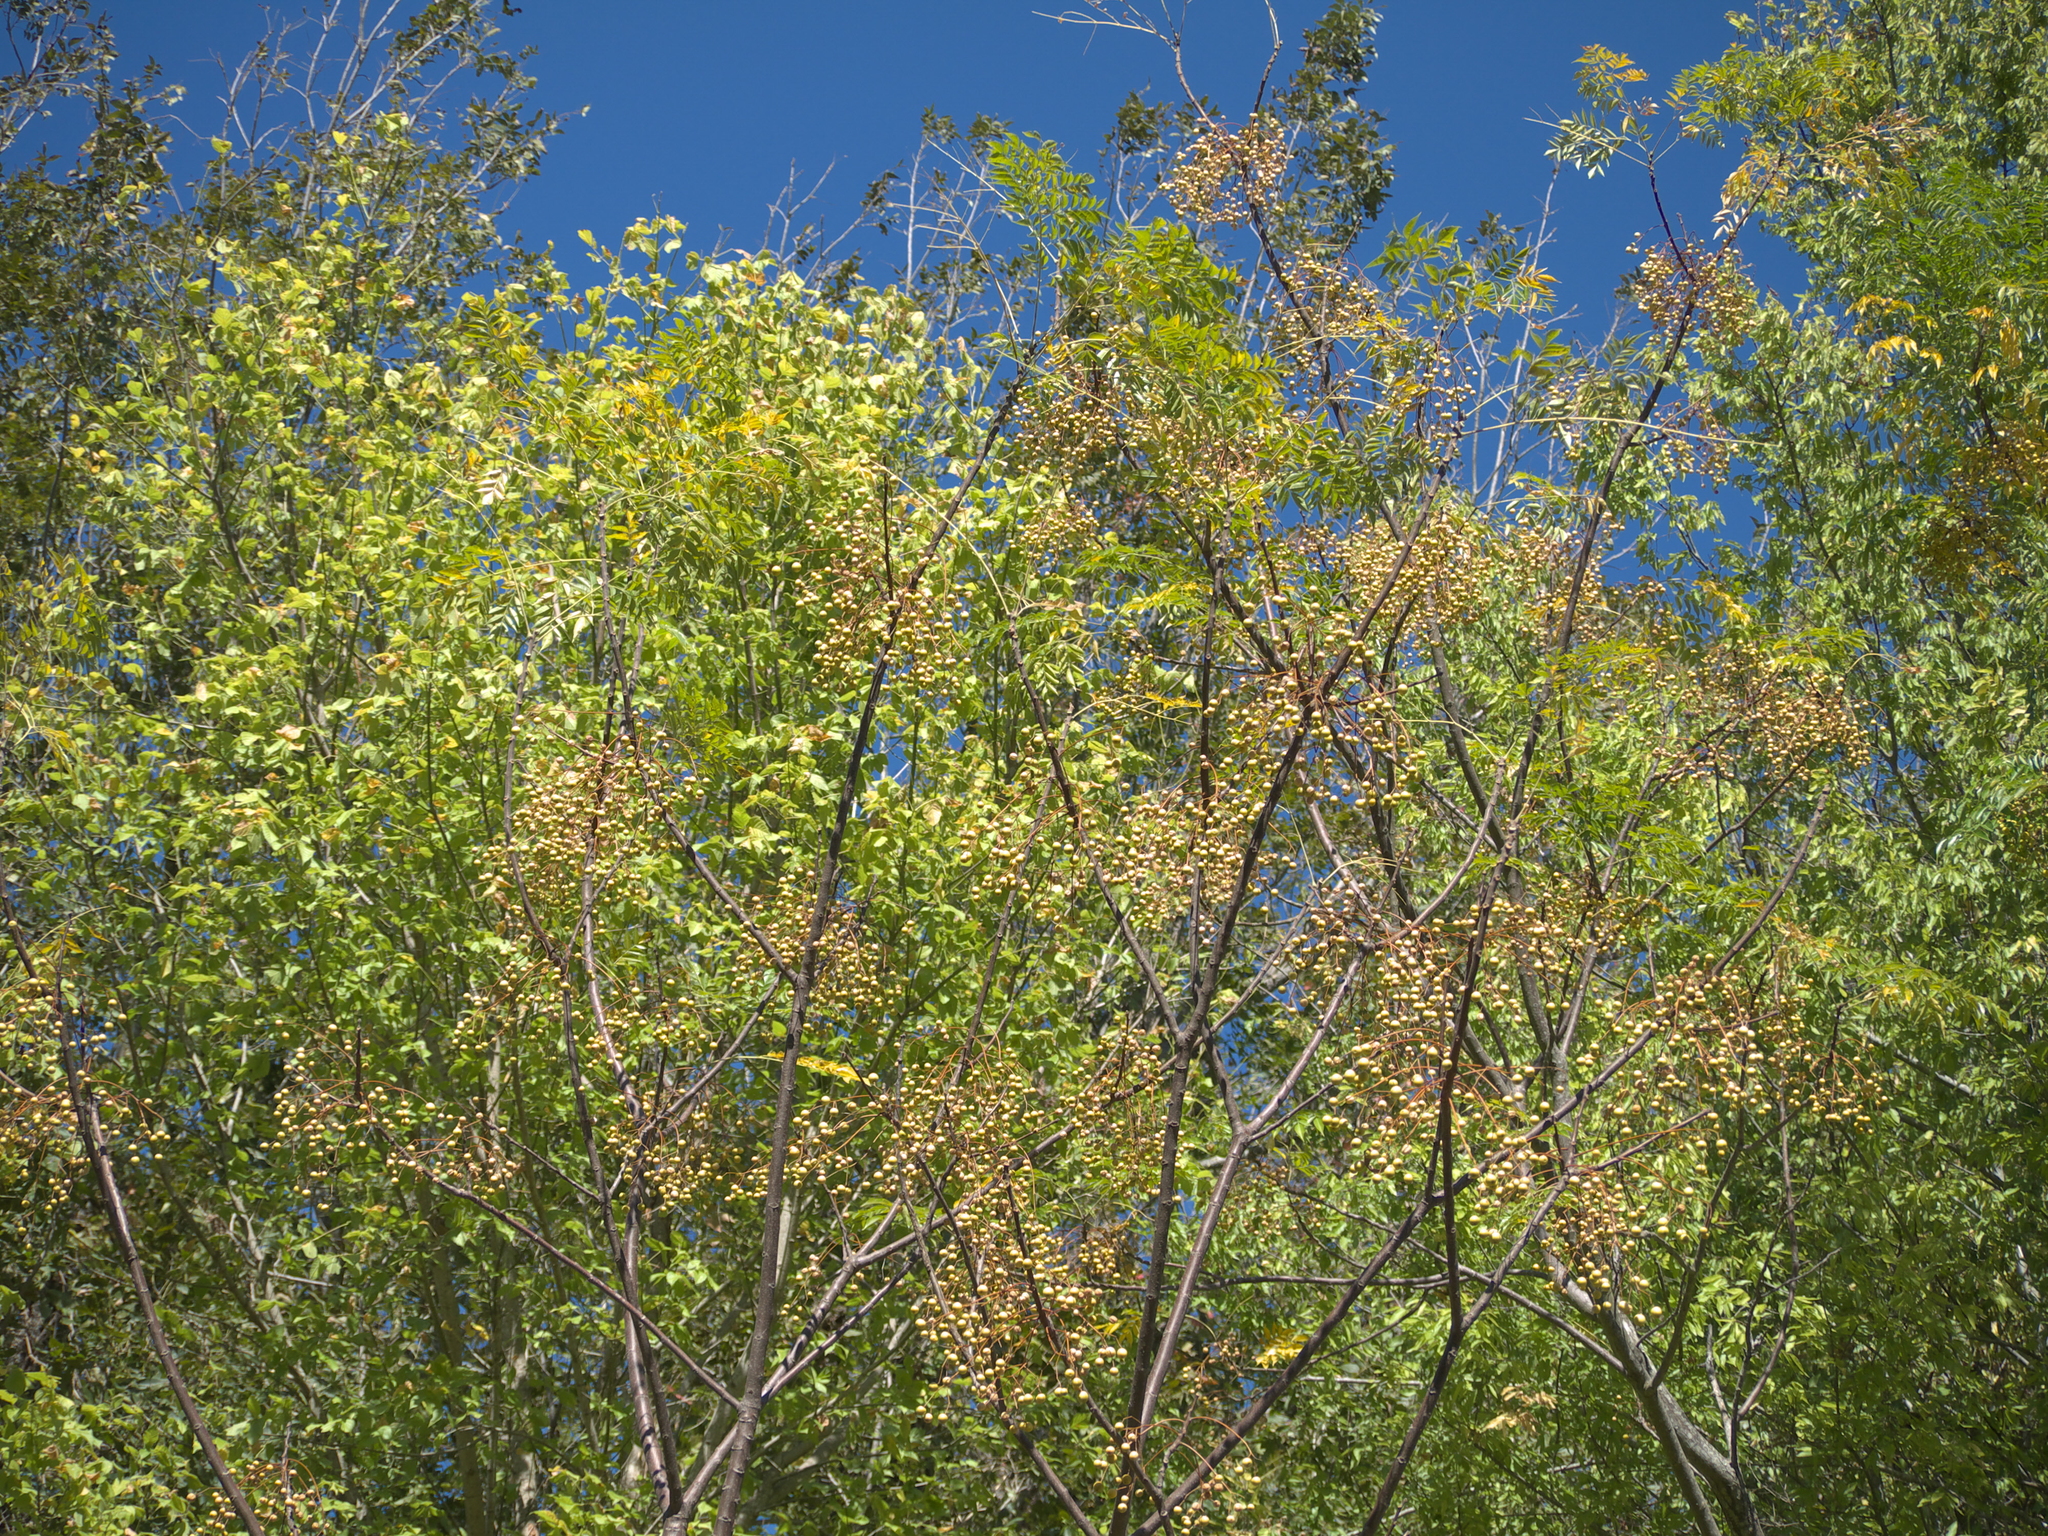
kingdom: Plantae
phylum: Tracheophyta
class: Magnoliopsida
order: Sapindales
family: Meliaceae
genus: Melia
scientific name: Melia azedarach
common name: Chinaberrytree
